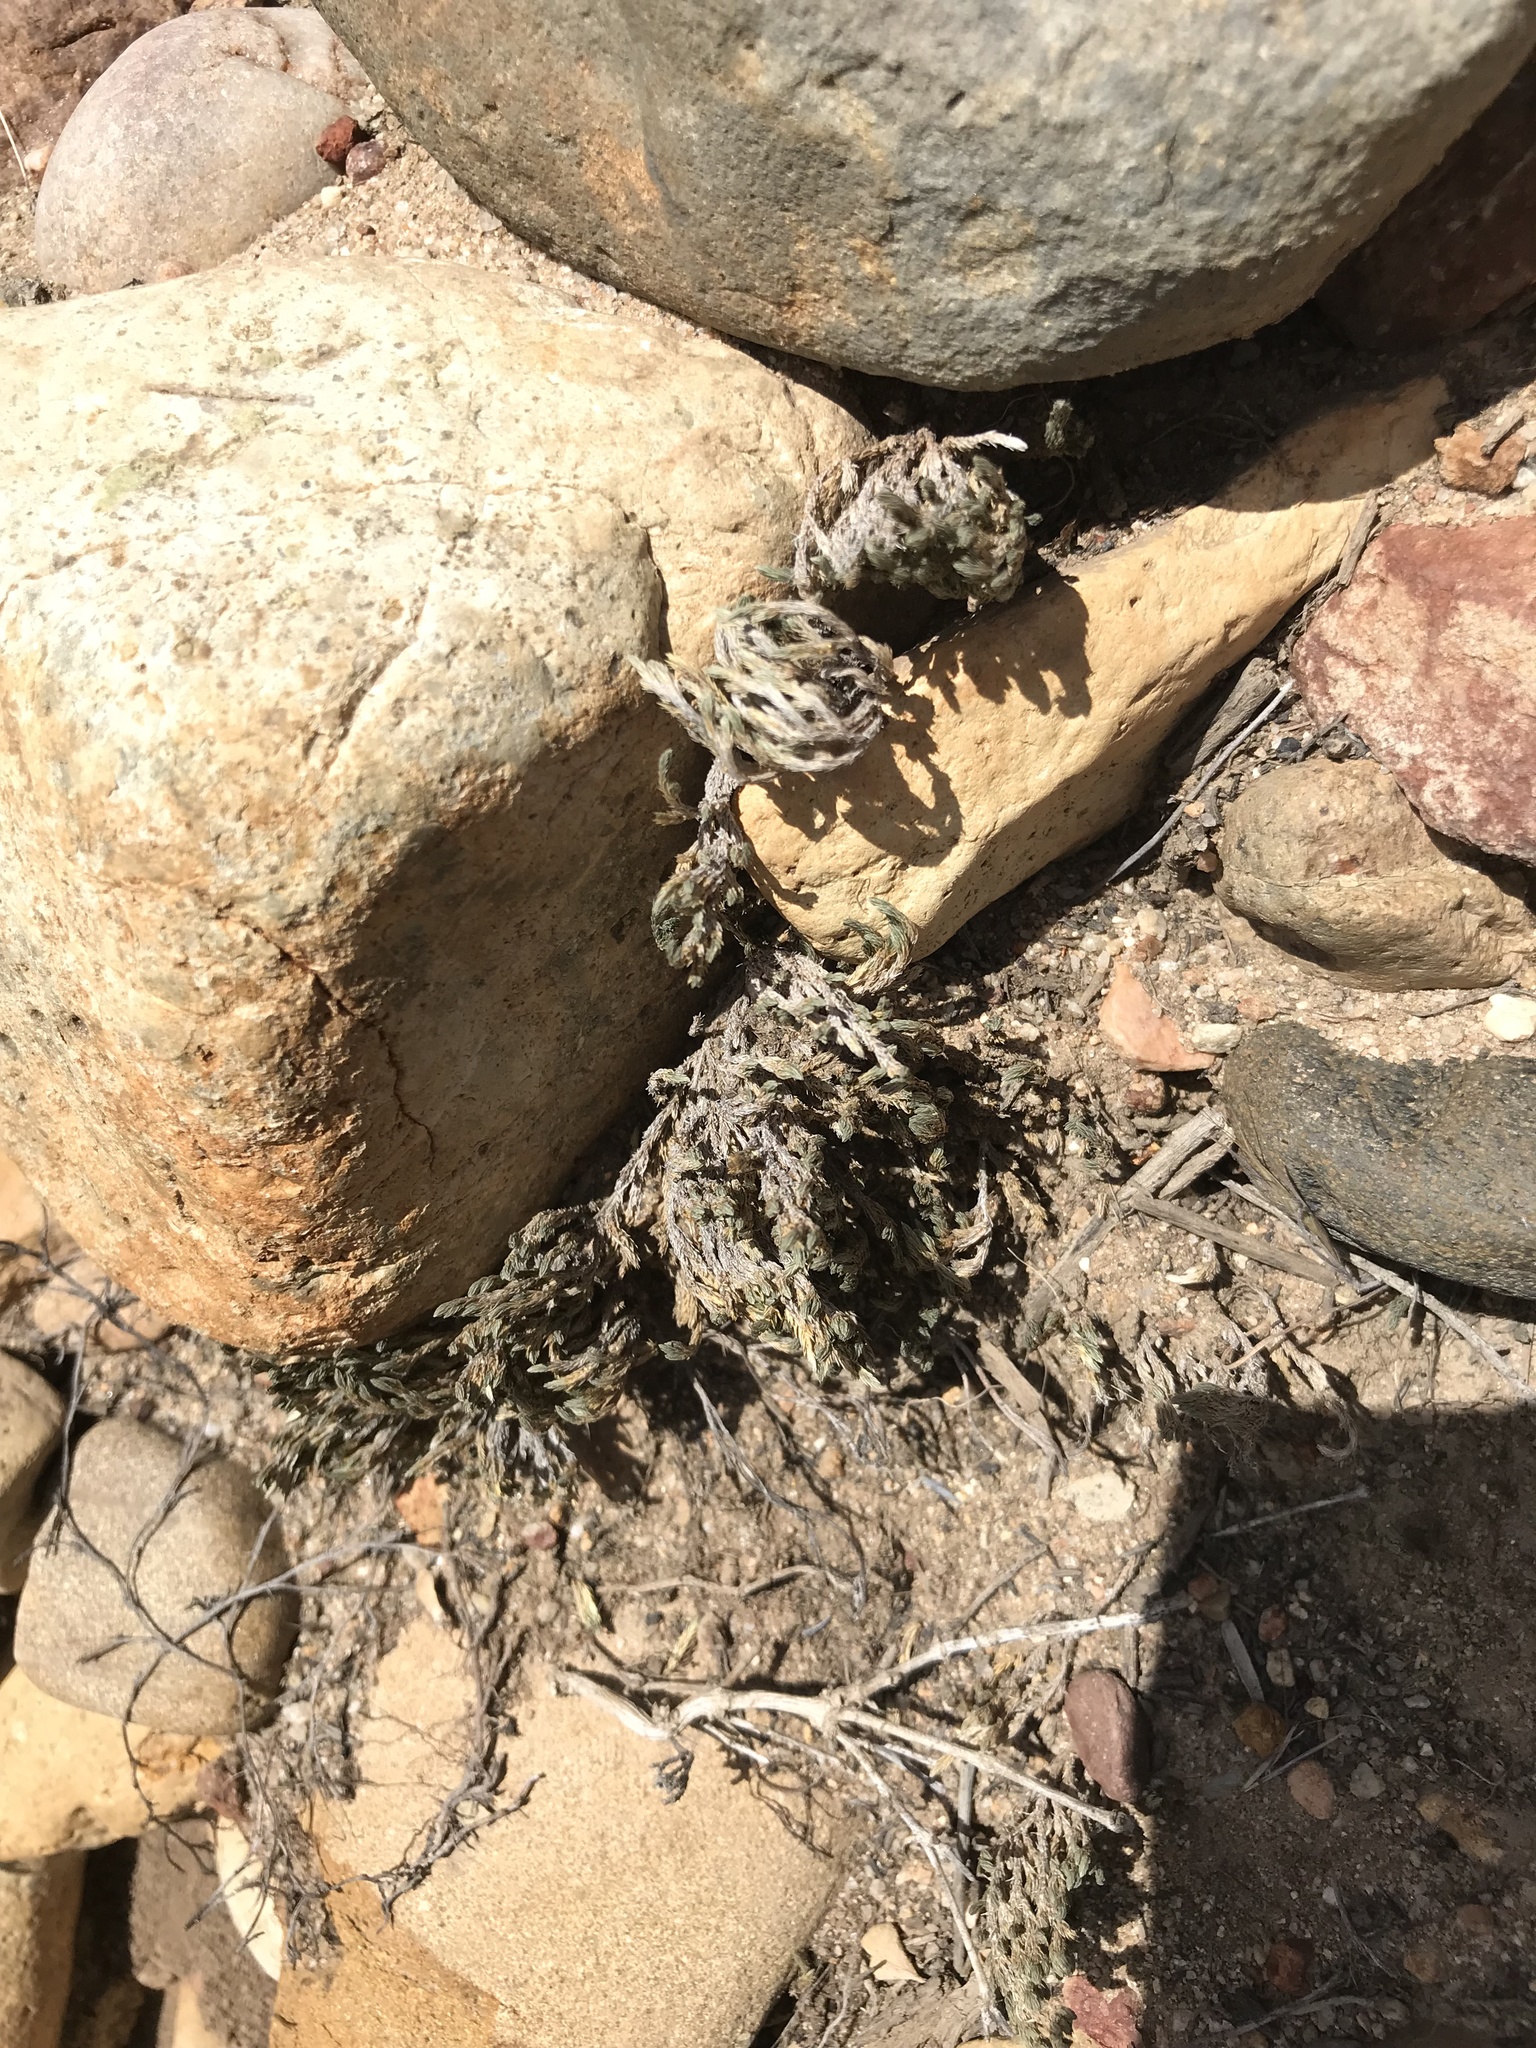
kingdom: Plantae
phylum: Tracheophyta
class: Lycopodiopsida
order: Selaginellales
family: Selaginellaceae
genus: Selaginella
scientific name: Selaginella bigelovii
